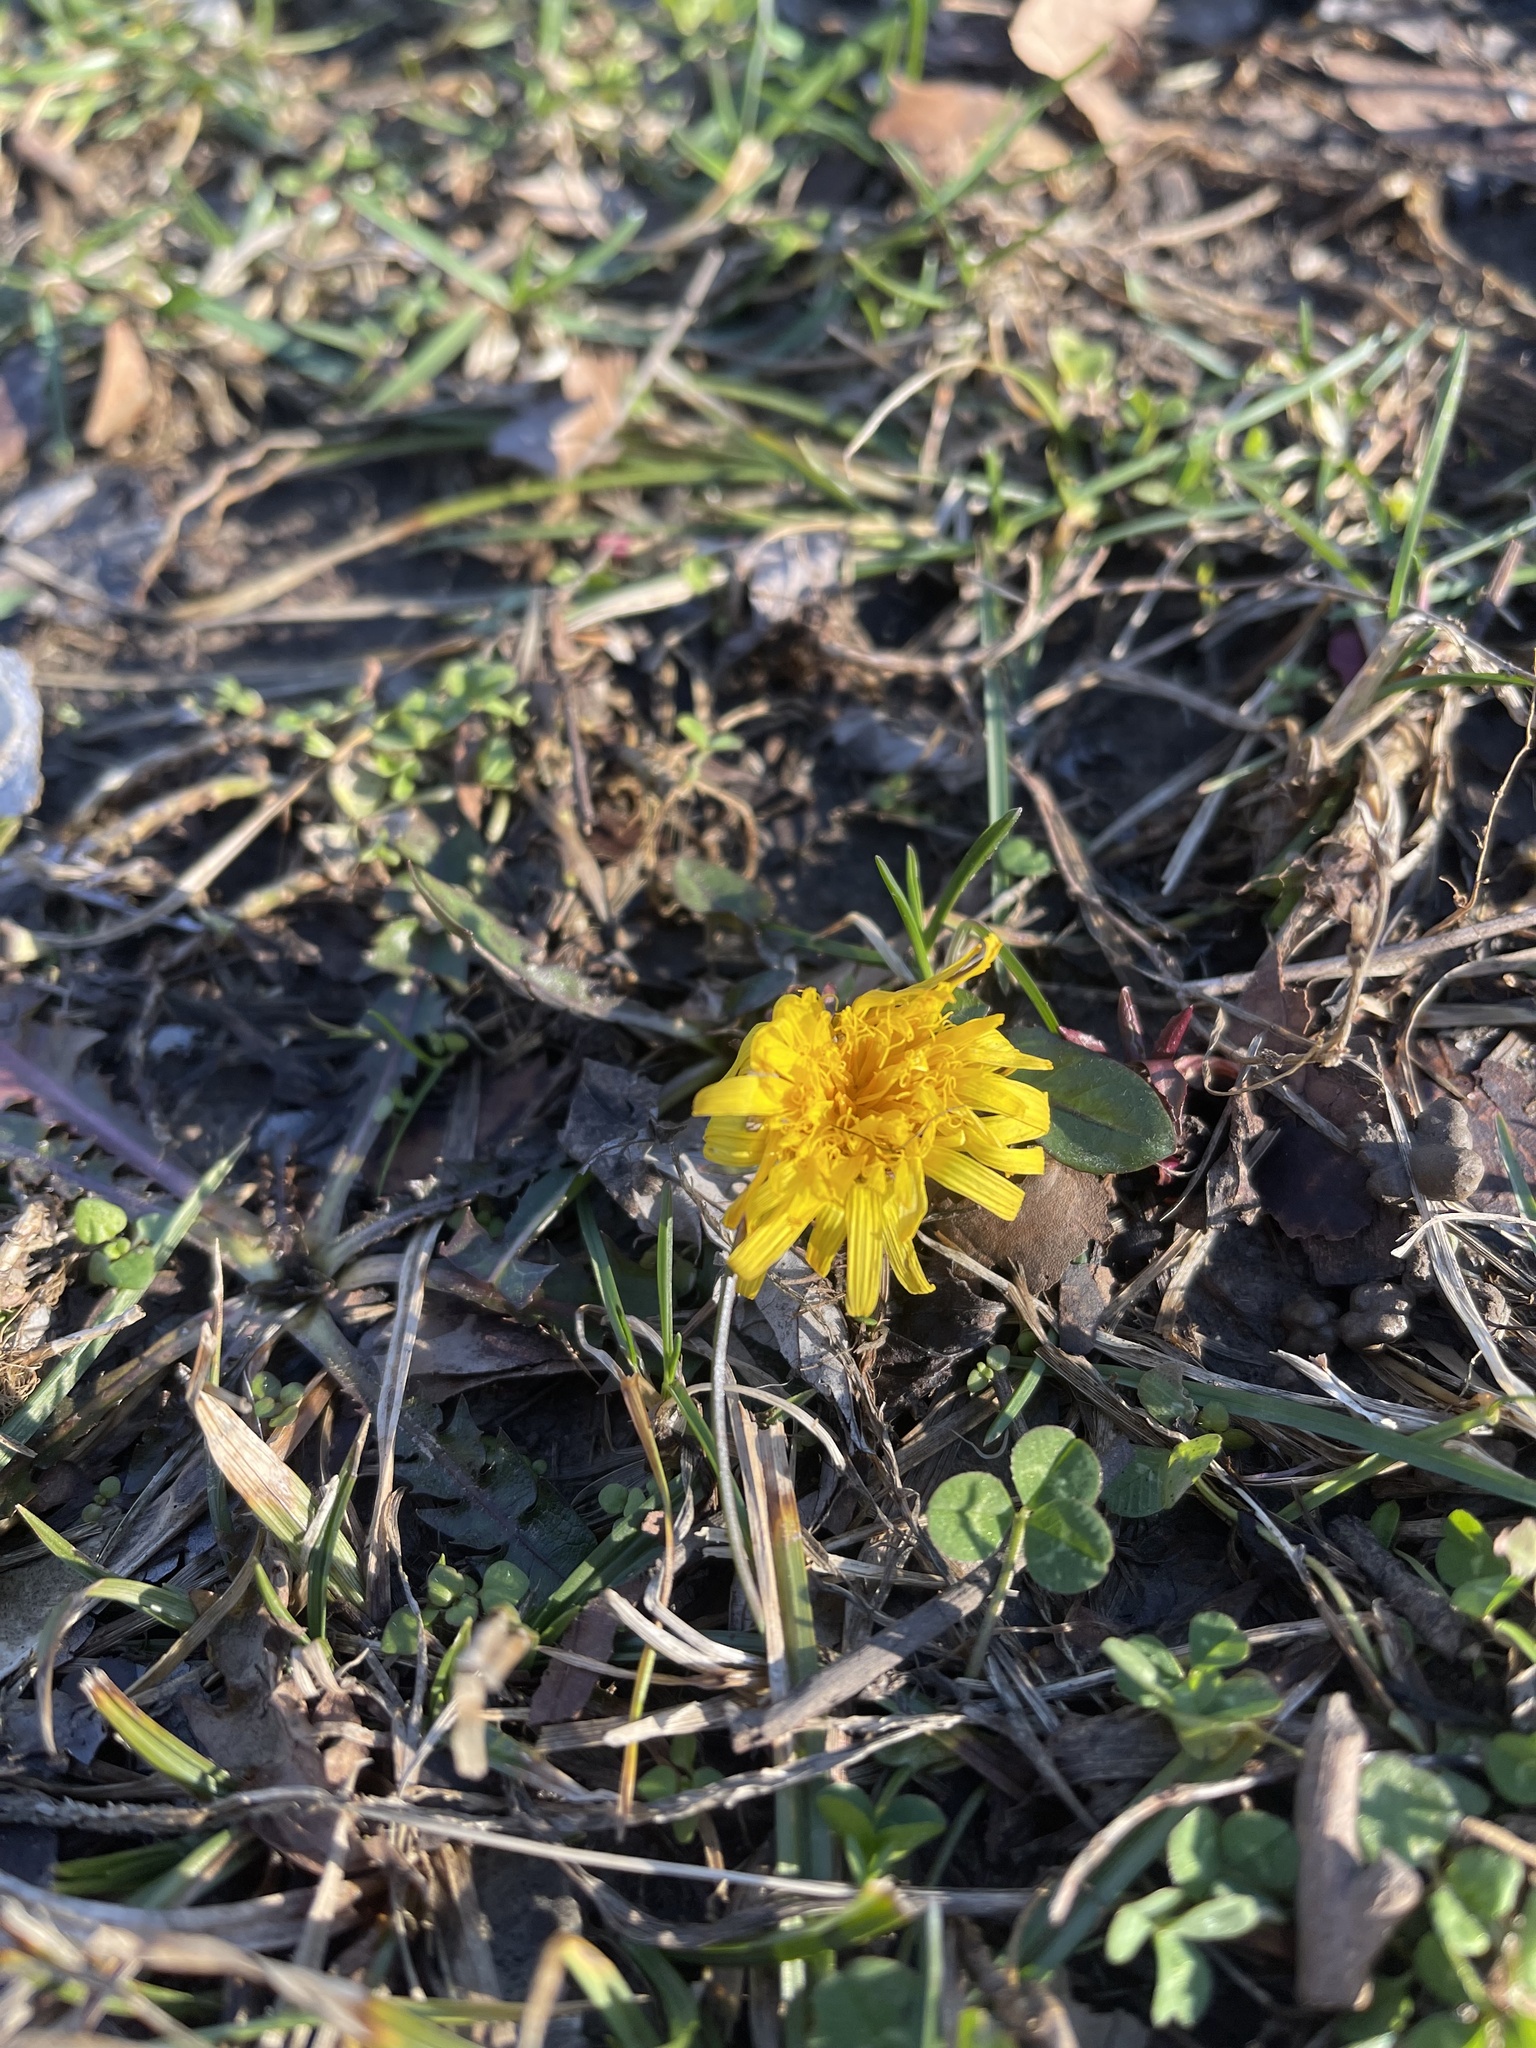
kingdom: Plantae
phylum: Tracheophyta
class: Magnoliopsida
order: Asterales
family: Asteraceae
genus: Taraxacum
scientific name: Taraxacum officinale
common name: Common dandelion
